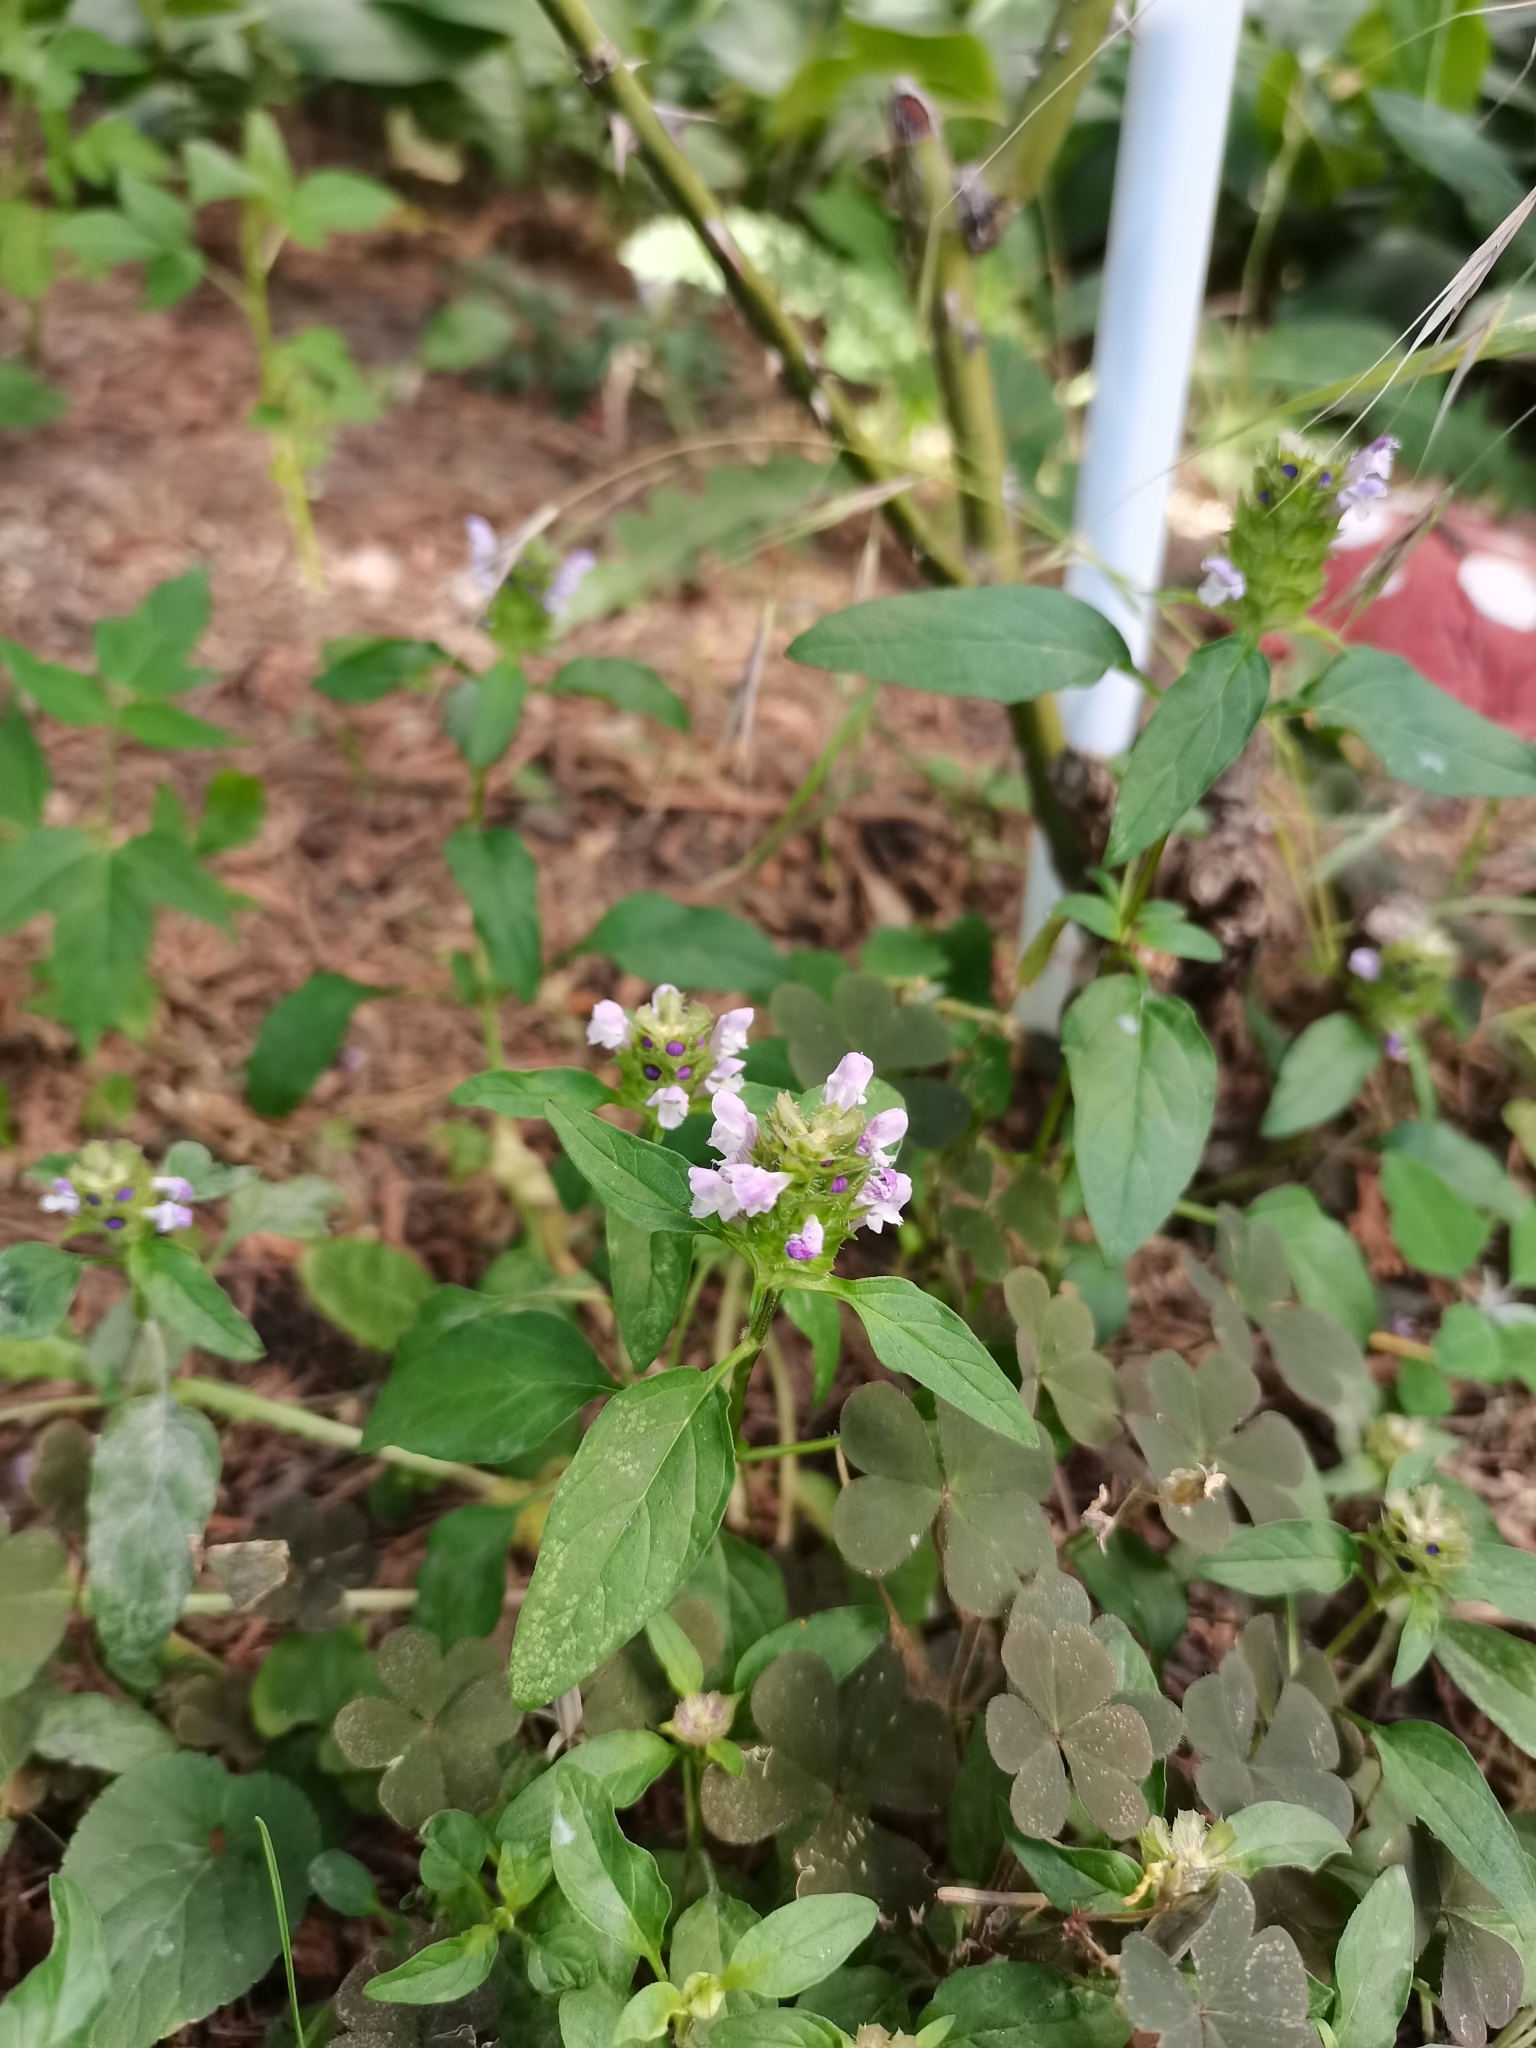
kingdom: Plantae
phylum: Tracheophyta
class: Magnoliopsida
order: Lamiales
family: Lamiaceae
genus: Prunella
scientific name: Prunella vulgaris
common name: Heal-all
